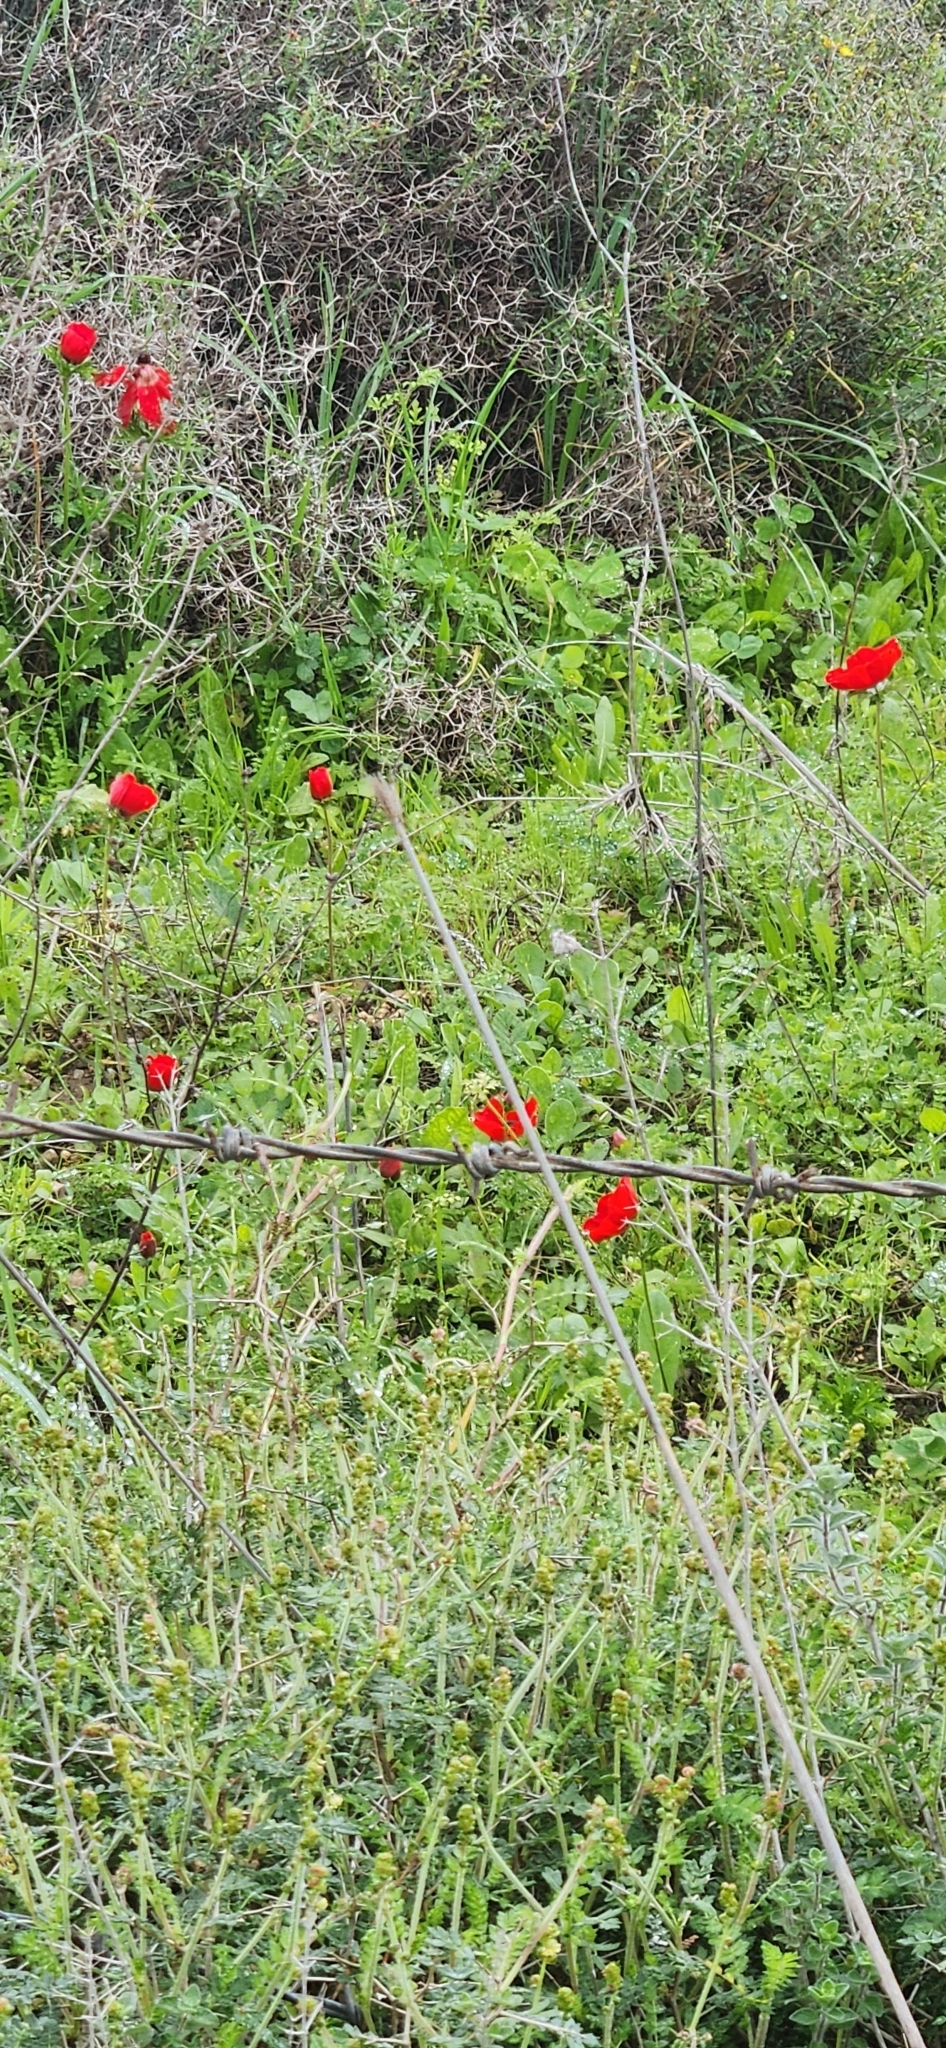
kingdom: Plantae
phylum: Tracheophyta
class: Magnoliopsida
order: Ranunculales
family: Papaveraceae
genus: Papaver
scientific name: Papaver umbonatum
